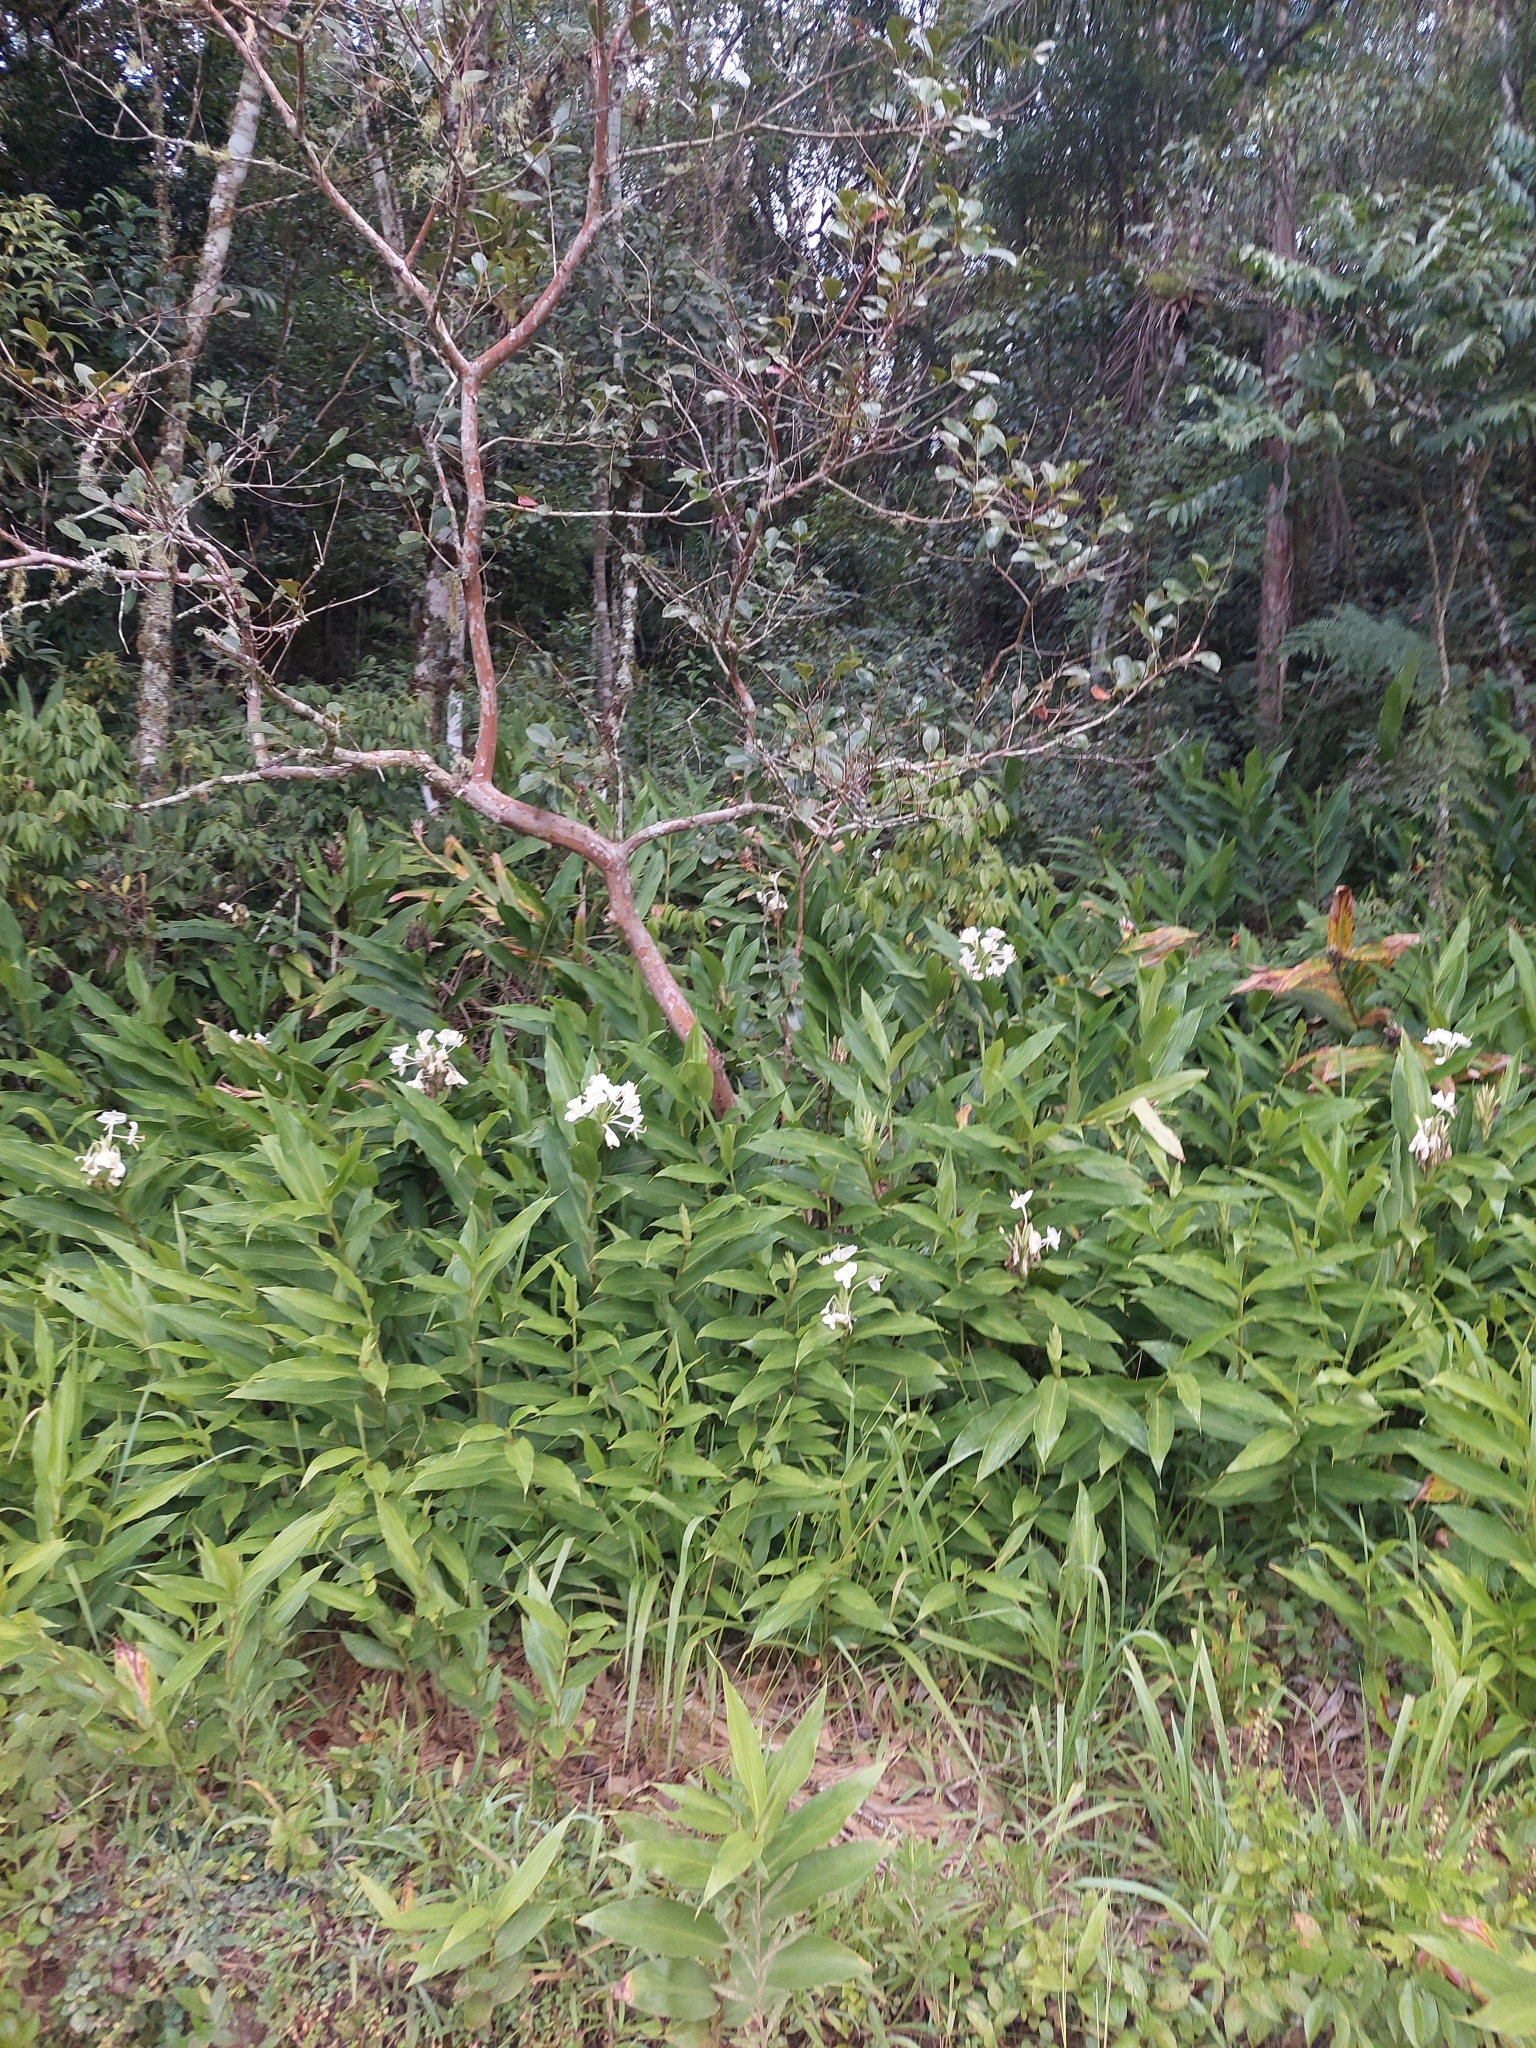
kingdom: Plantae
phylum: Tracheophyta
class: Liliopsida
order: Zingiberales
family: Zingiberaceae
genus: Hedychium
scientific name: Hedychium coronarium
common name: White garland-lily
